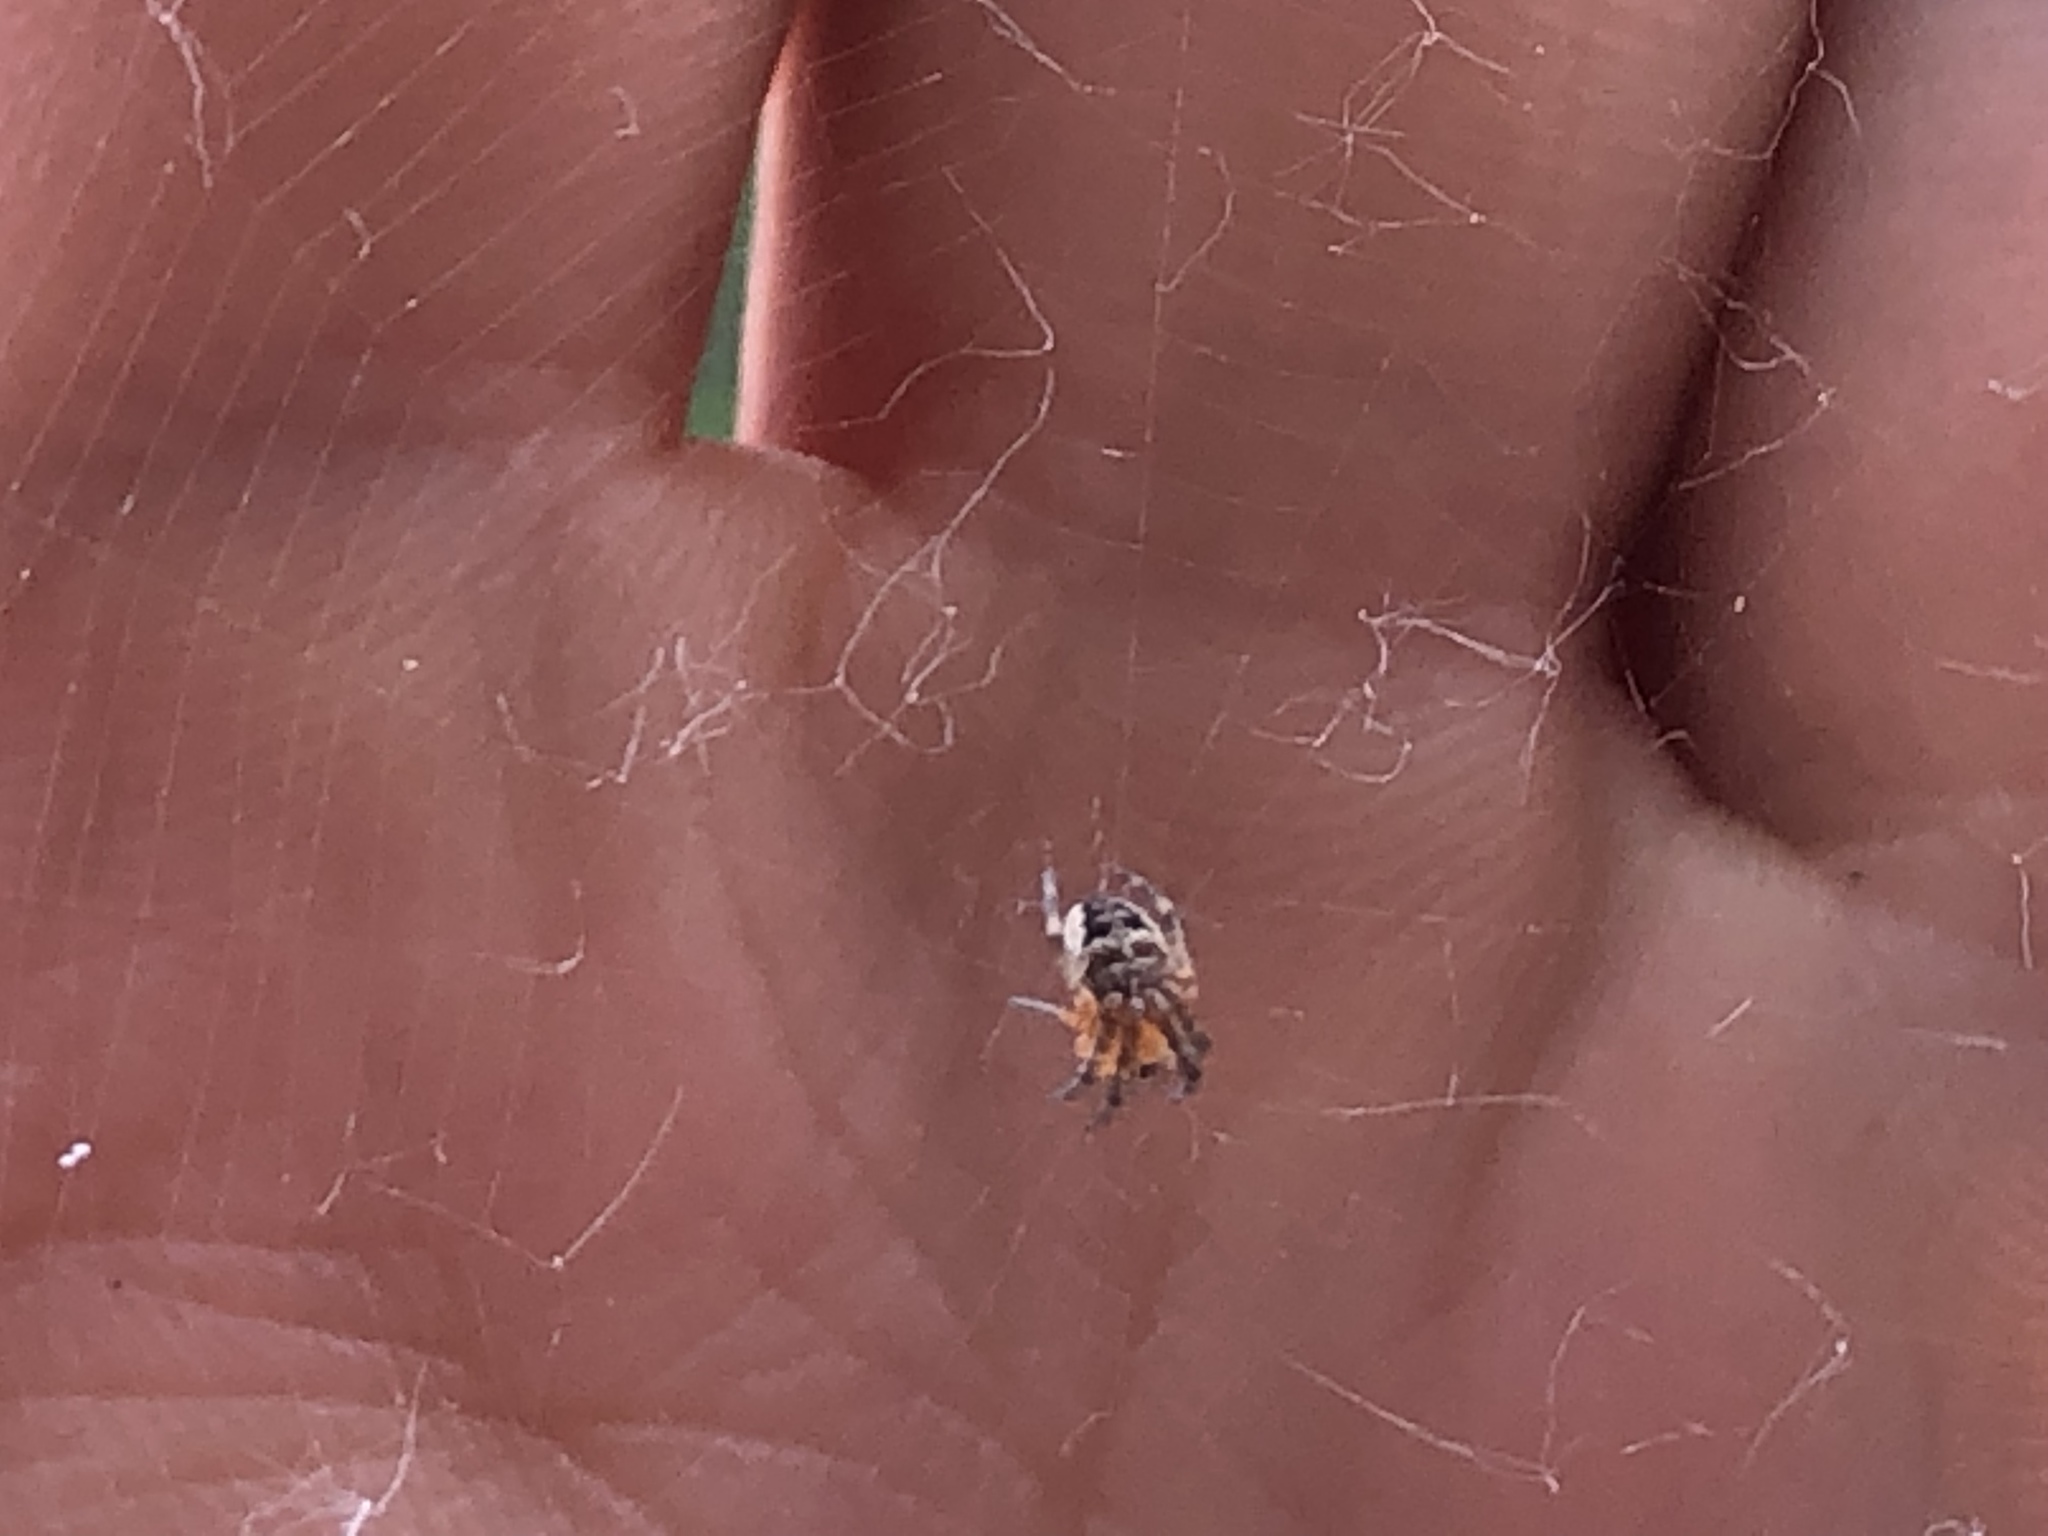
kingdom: Animalia
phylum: Arthropoda
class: Arachnida
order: Araneae
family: Araneidae
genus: Araneus
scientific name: Araneus diadematus
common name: Cross orbweaver
